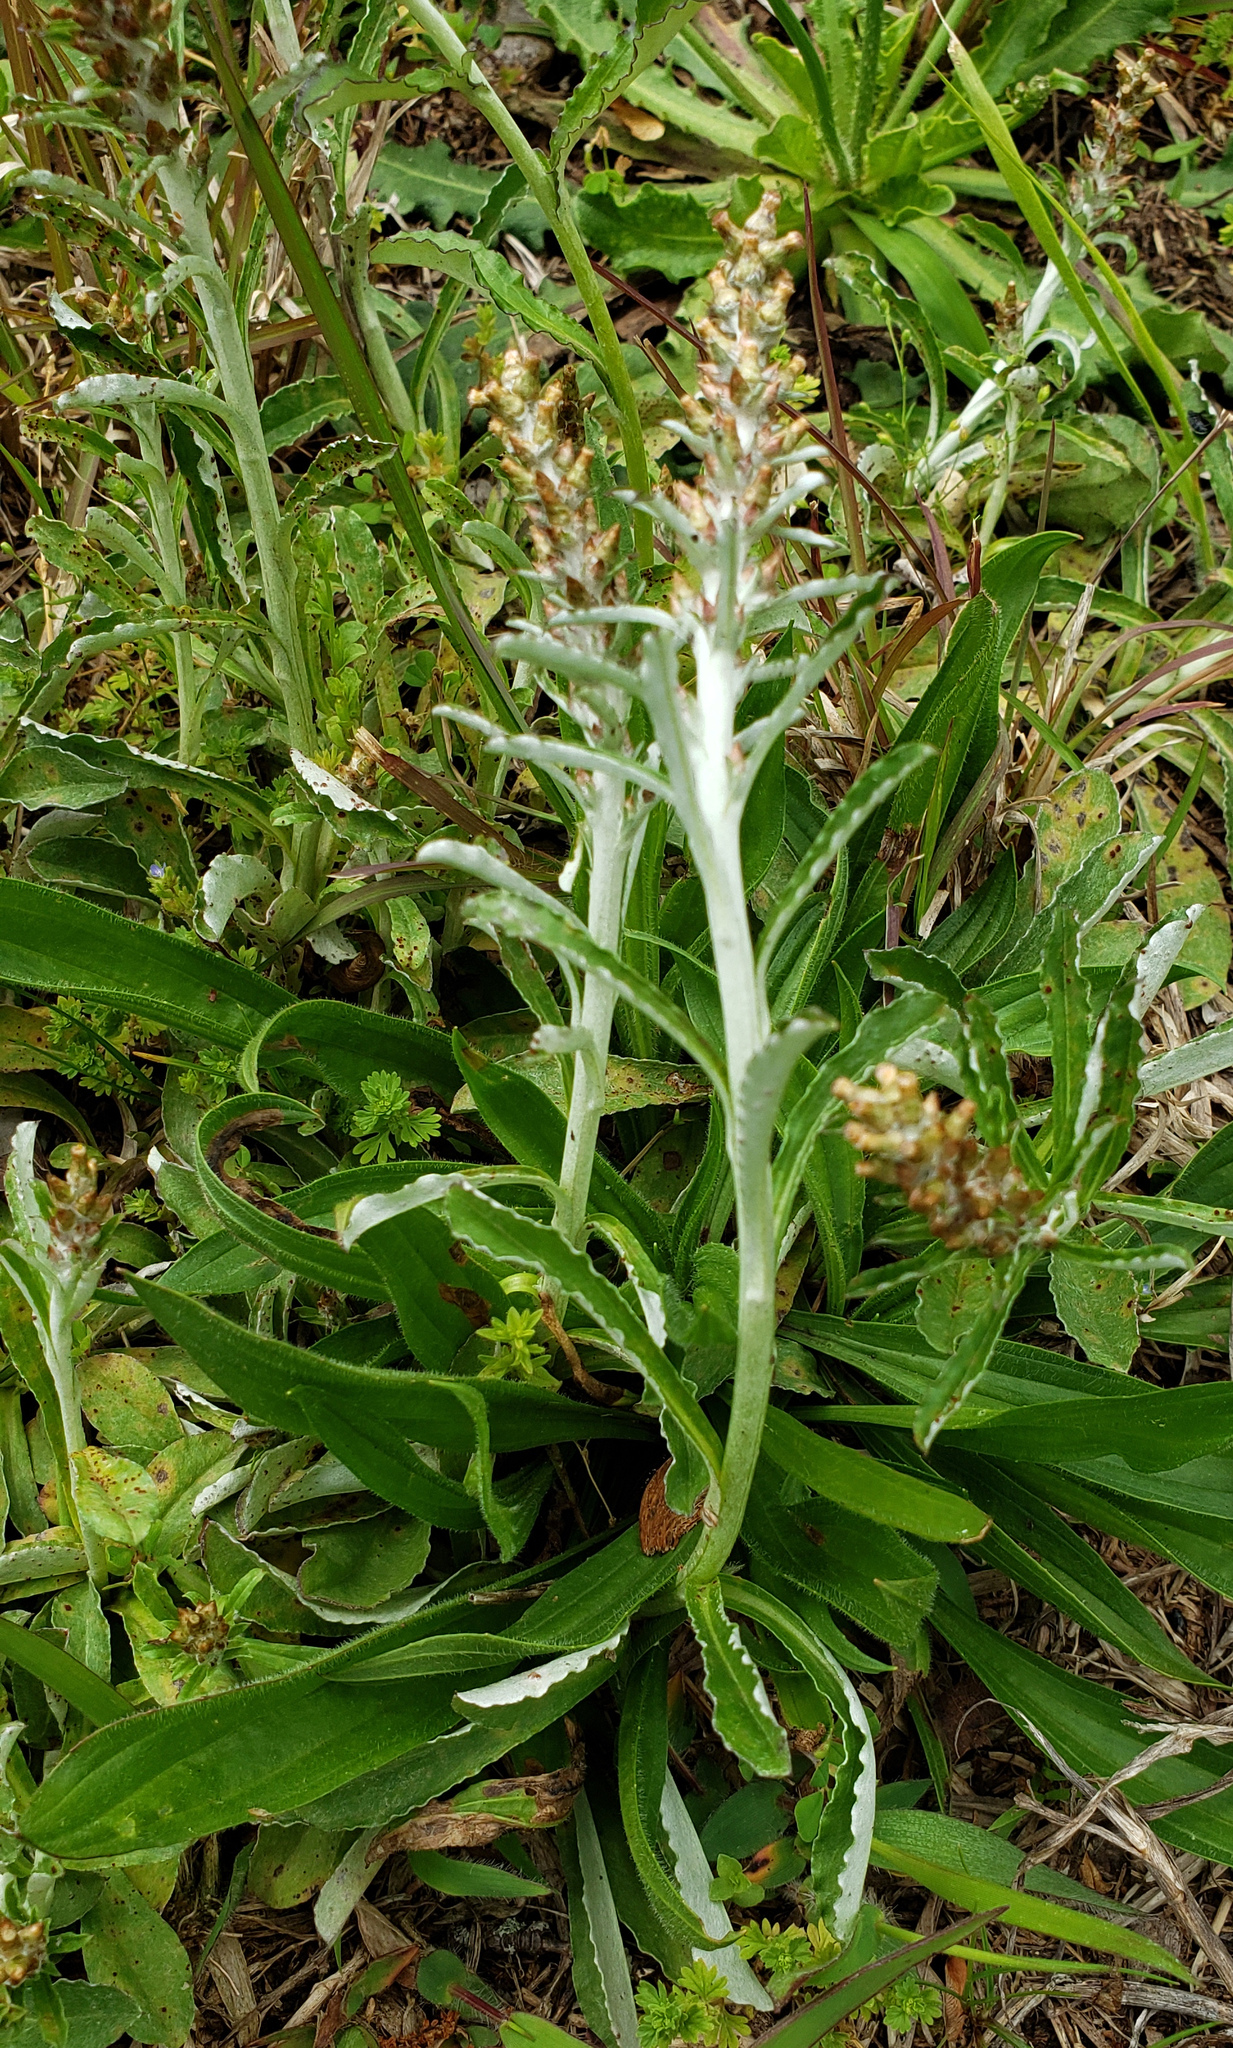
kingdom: Plantae
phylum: Tracheophyta
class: Magnoliopsida
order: Asterales
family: Asteraceae
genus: Gamochaeta
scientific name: Gamochaeta pensylvanica
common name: Pennsylvania everlasting
